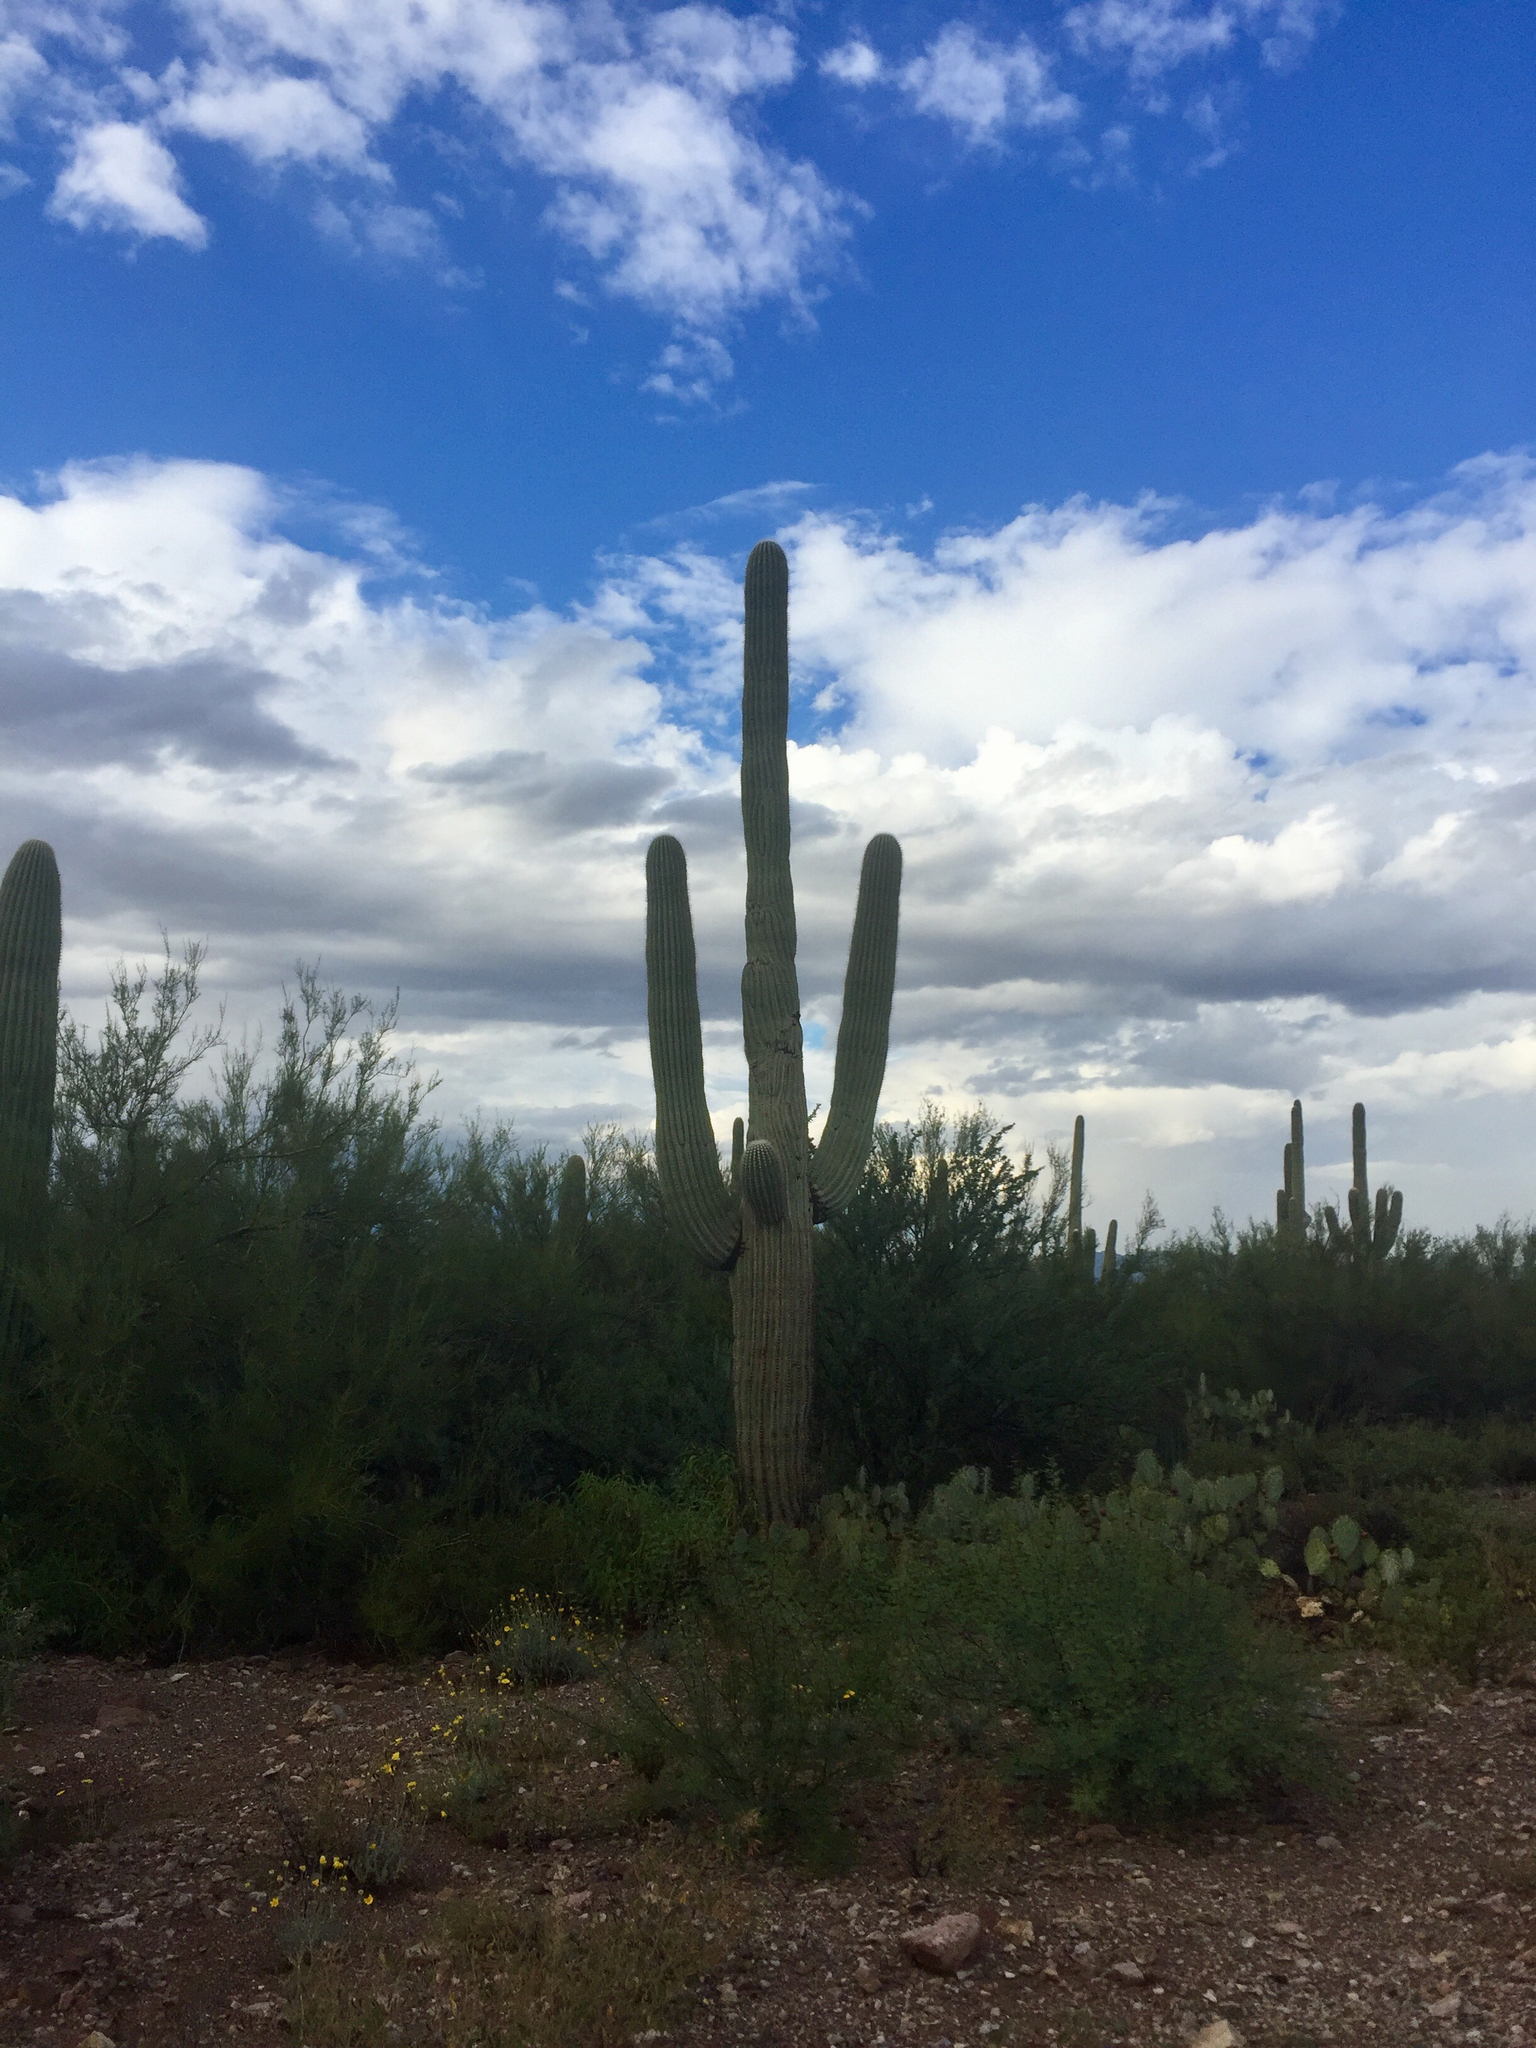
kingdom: Plantae
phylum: Tracheophyta
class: Magnoliopsida
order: Caryophyllales
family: Cactaceae
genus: Carnegiea
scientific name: Carnegiea gigantea
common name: Saguaro
